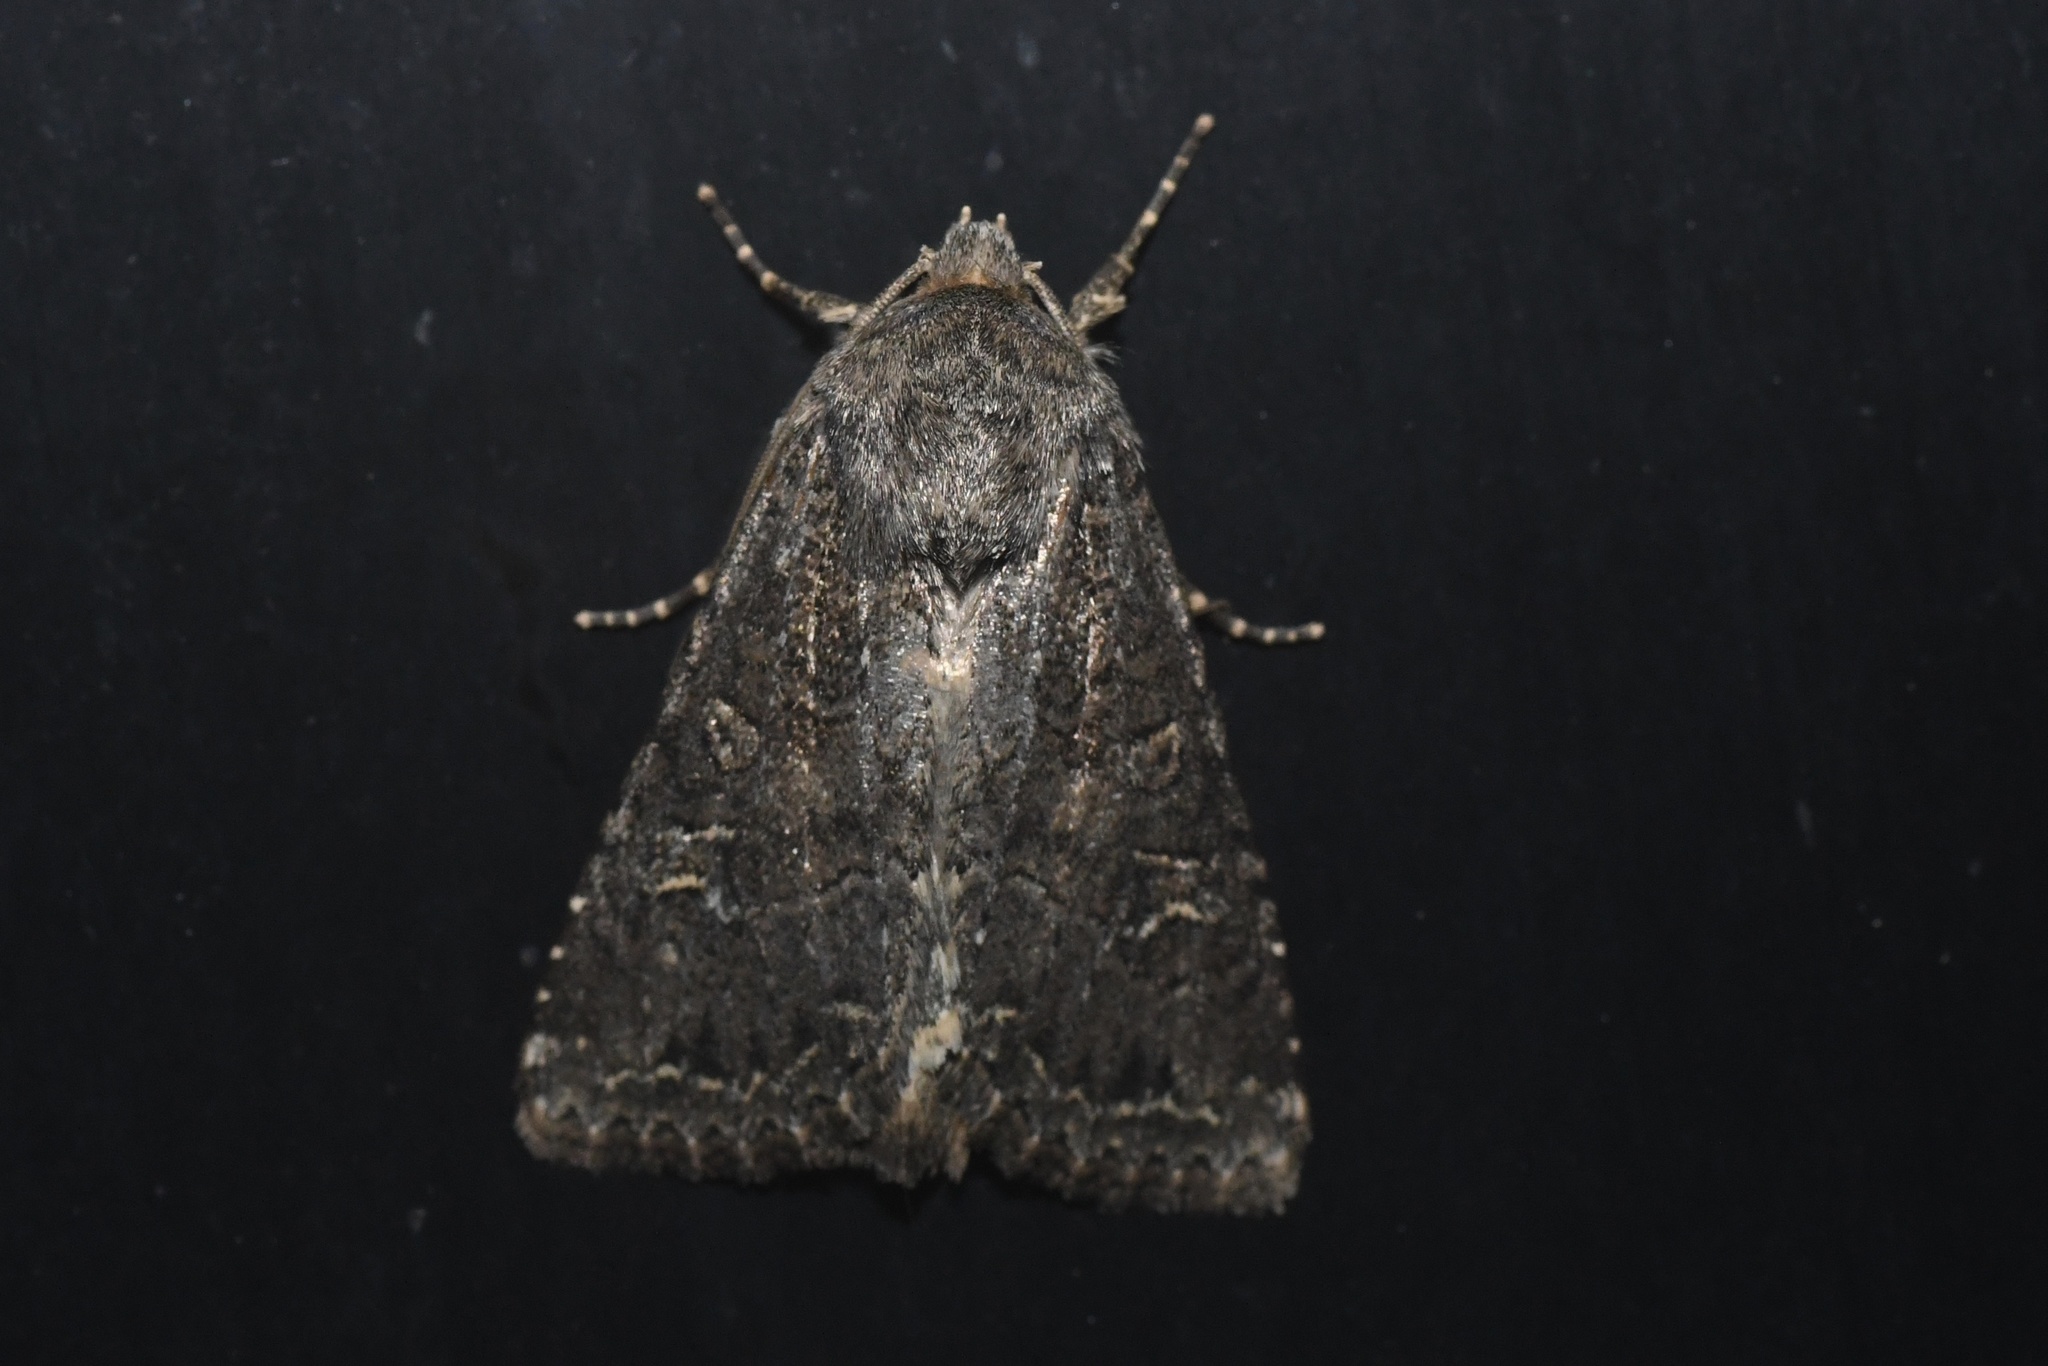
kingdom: Animalia
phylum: Arthropoda
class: Insecta
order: Lepidoptera
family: Noctuidae
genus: Apamea
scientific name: Apamea devastator
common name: Glassy cutworm
